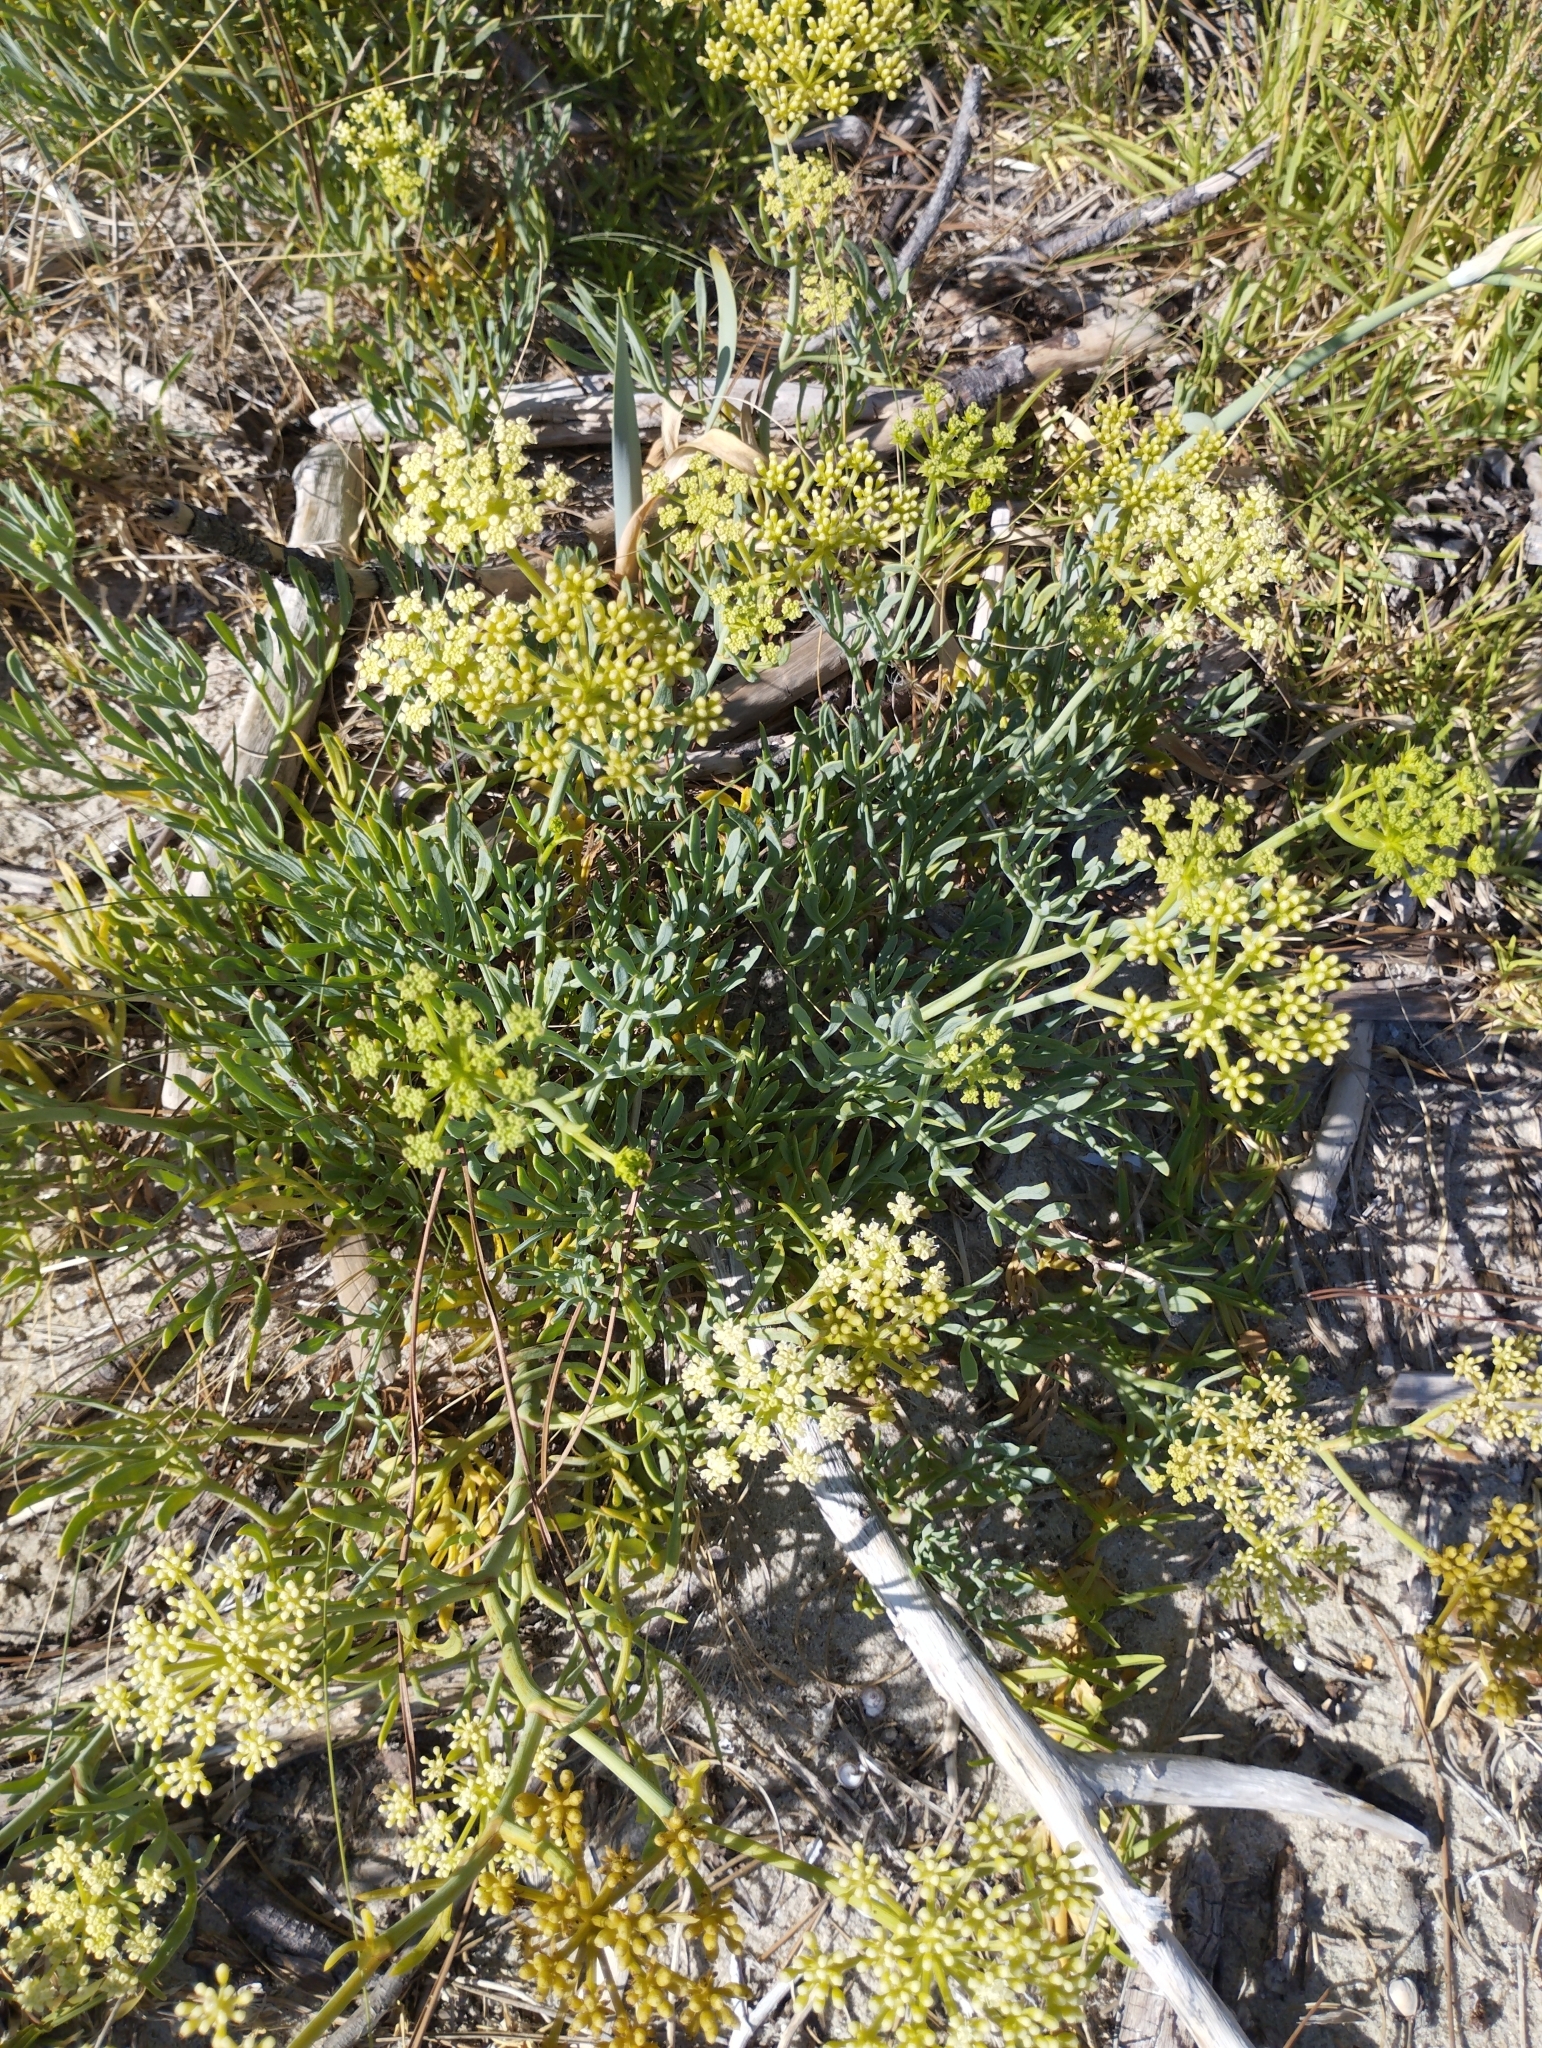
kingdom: Plantae
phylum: Tracheophyta
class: Magnoliopsida
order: Apiales
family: Apiaceae
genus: Crithmum
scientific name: Crithmum maritimum
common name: Rock samphire
